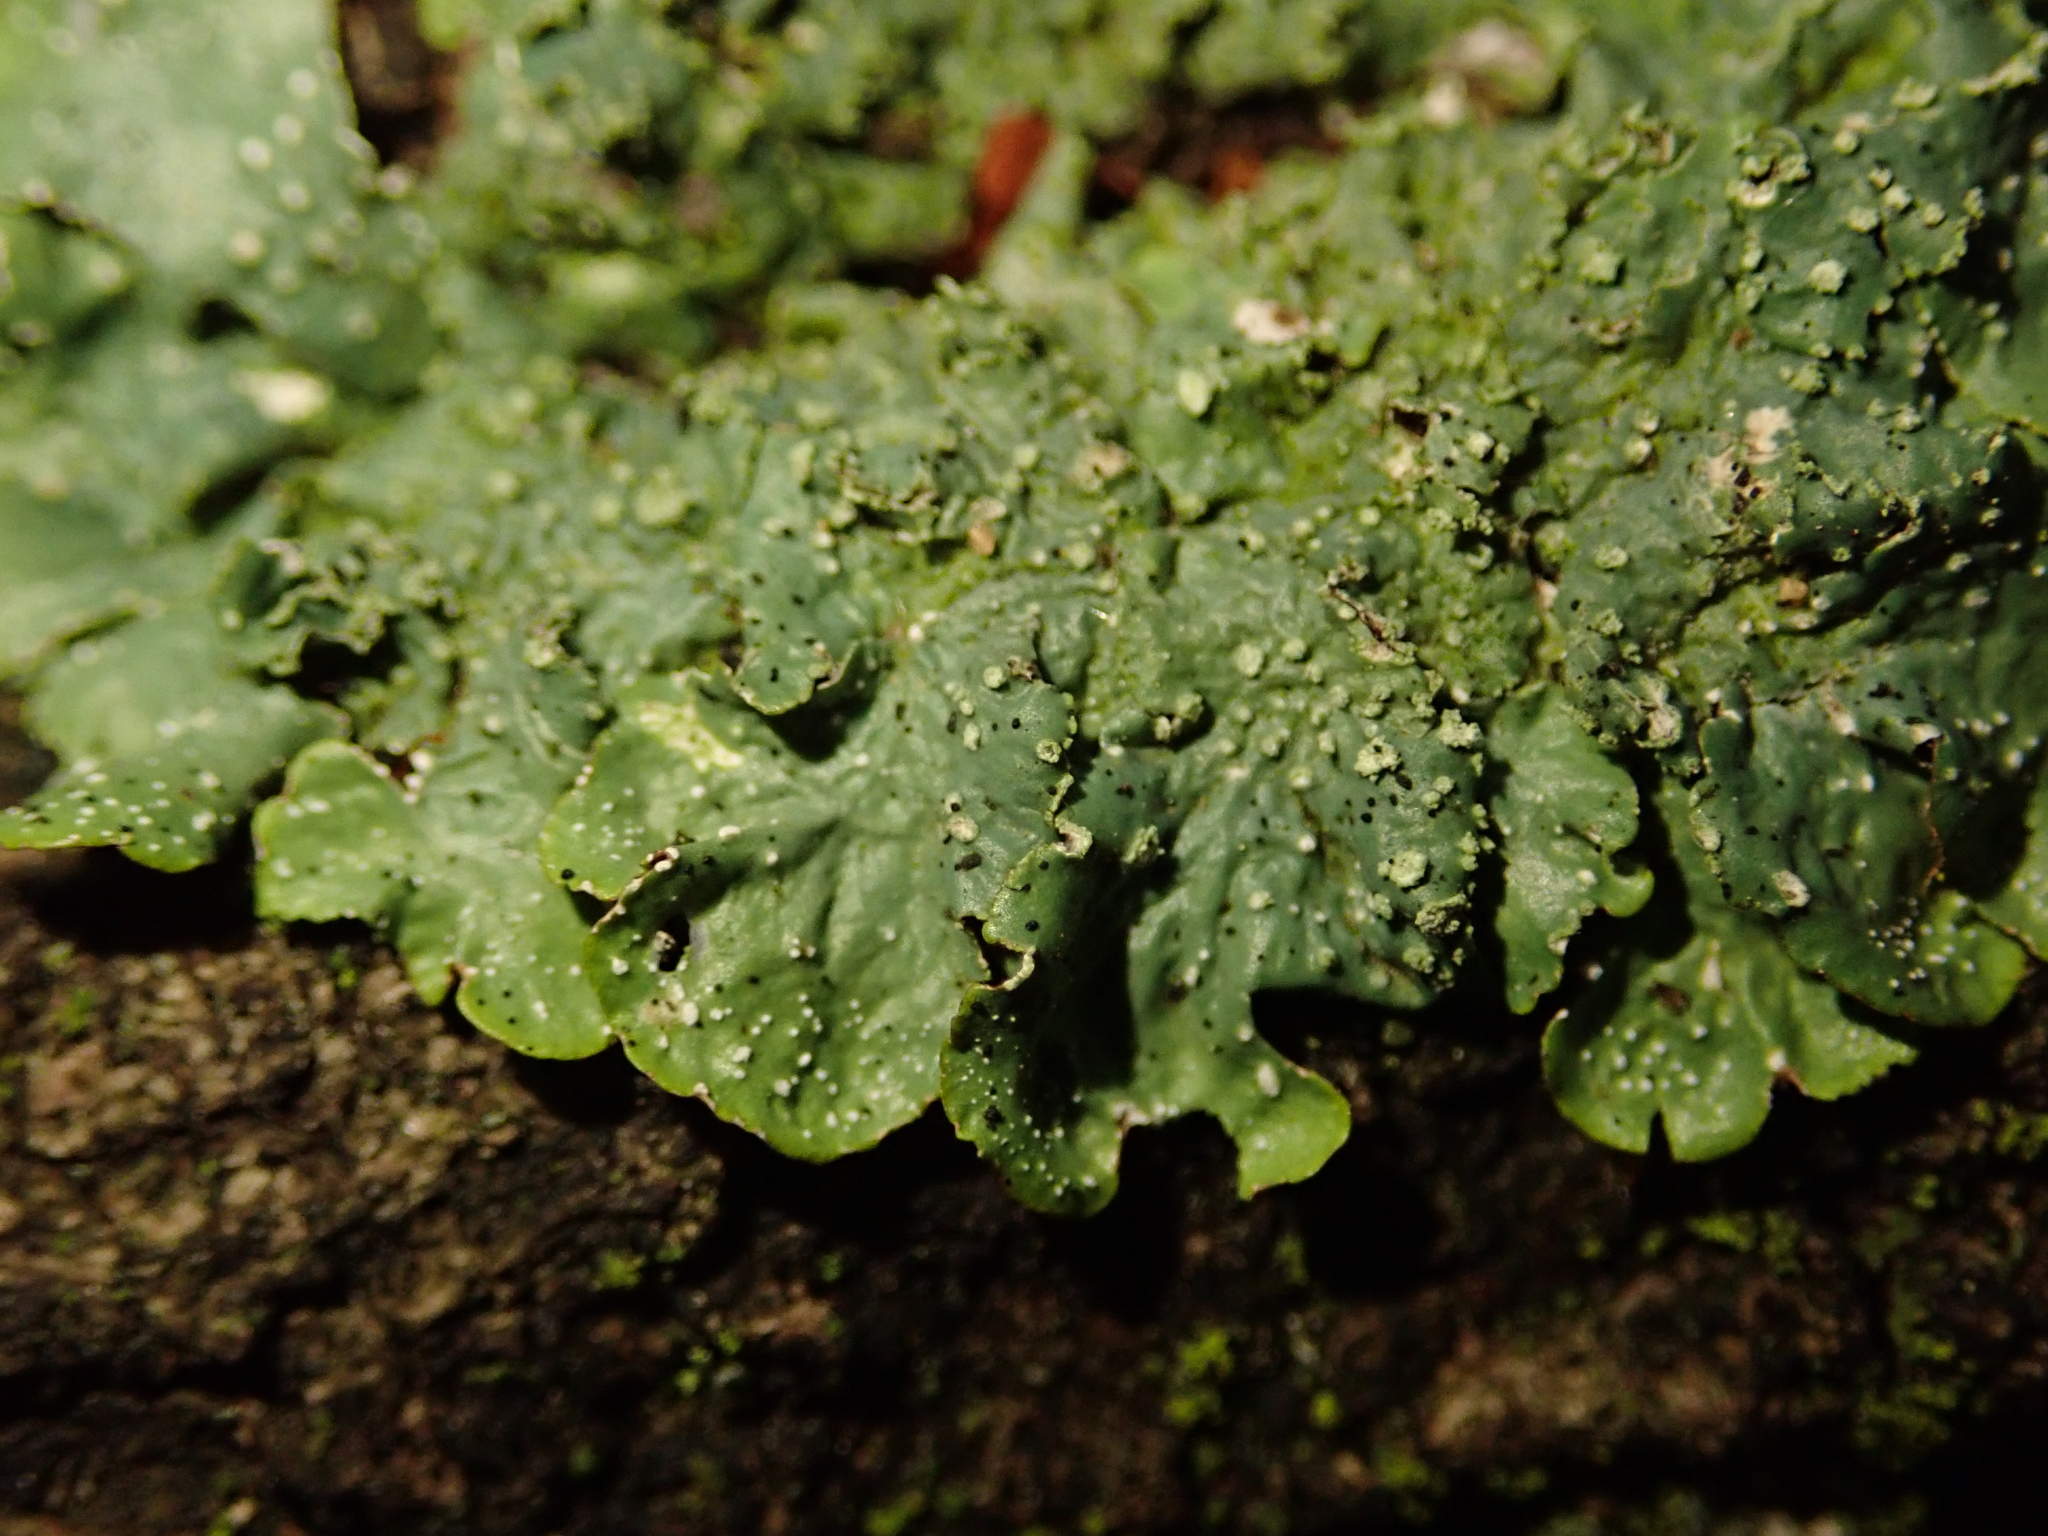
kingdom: Plantae
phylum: Tracheophyta
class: Magnoliopsida
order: Fabales
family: Fabaceae
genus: Robinia
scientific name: Robinia pseudoacacia
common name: Black locust
